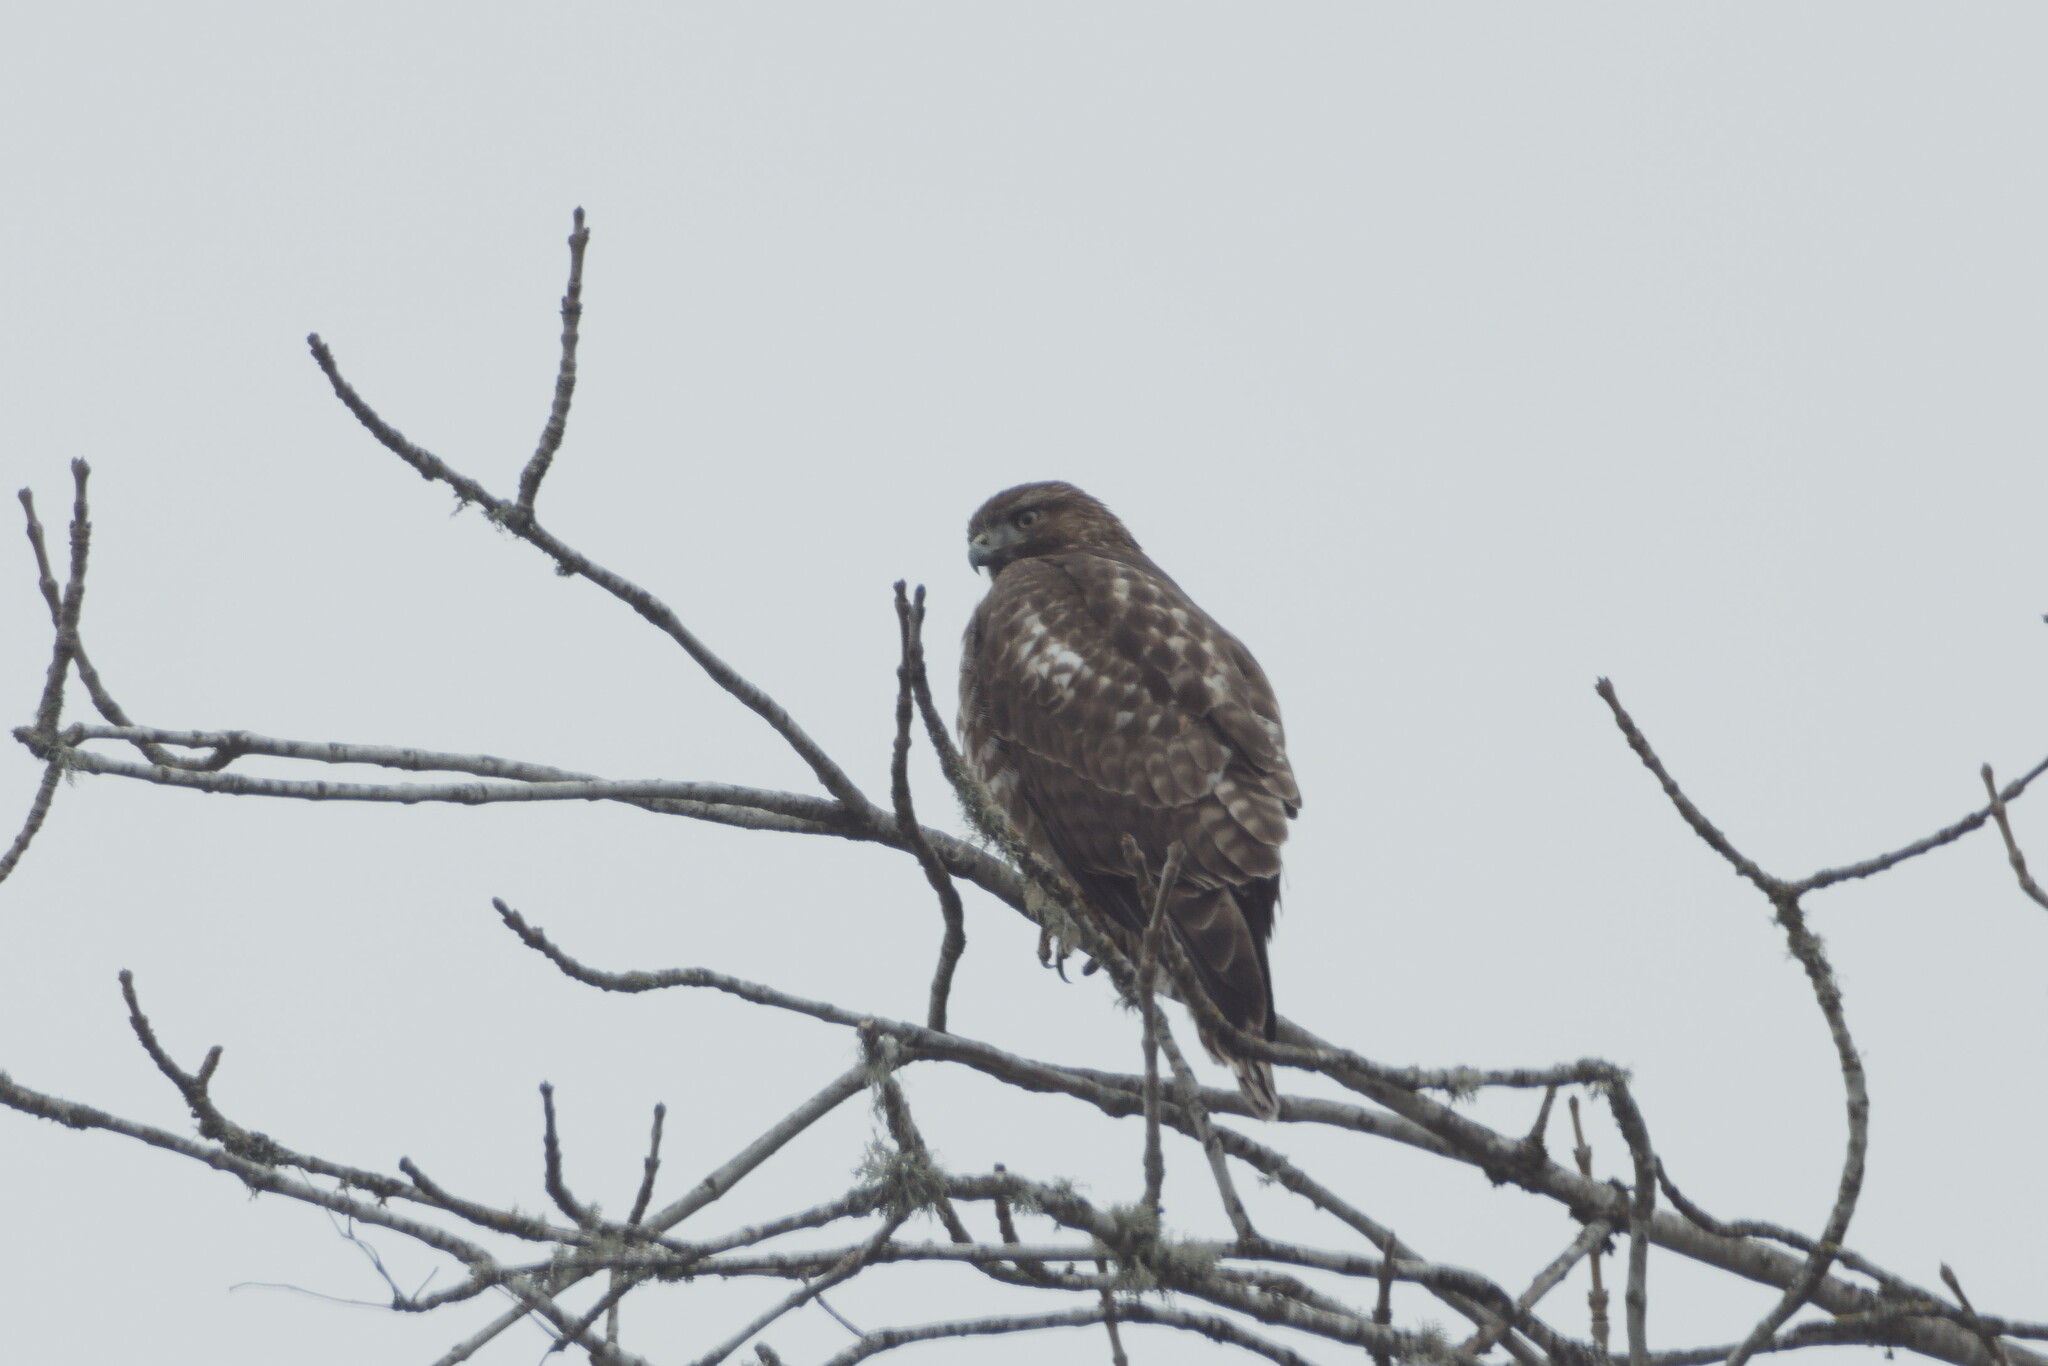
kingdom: Animalia
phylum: Chordata
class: Aves
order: Accipitriformes
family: Accipitridae
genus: Buteo
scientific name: Buteo jamaicensis
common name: Red-tailed hawk
